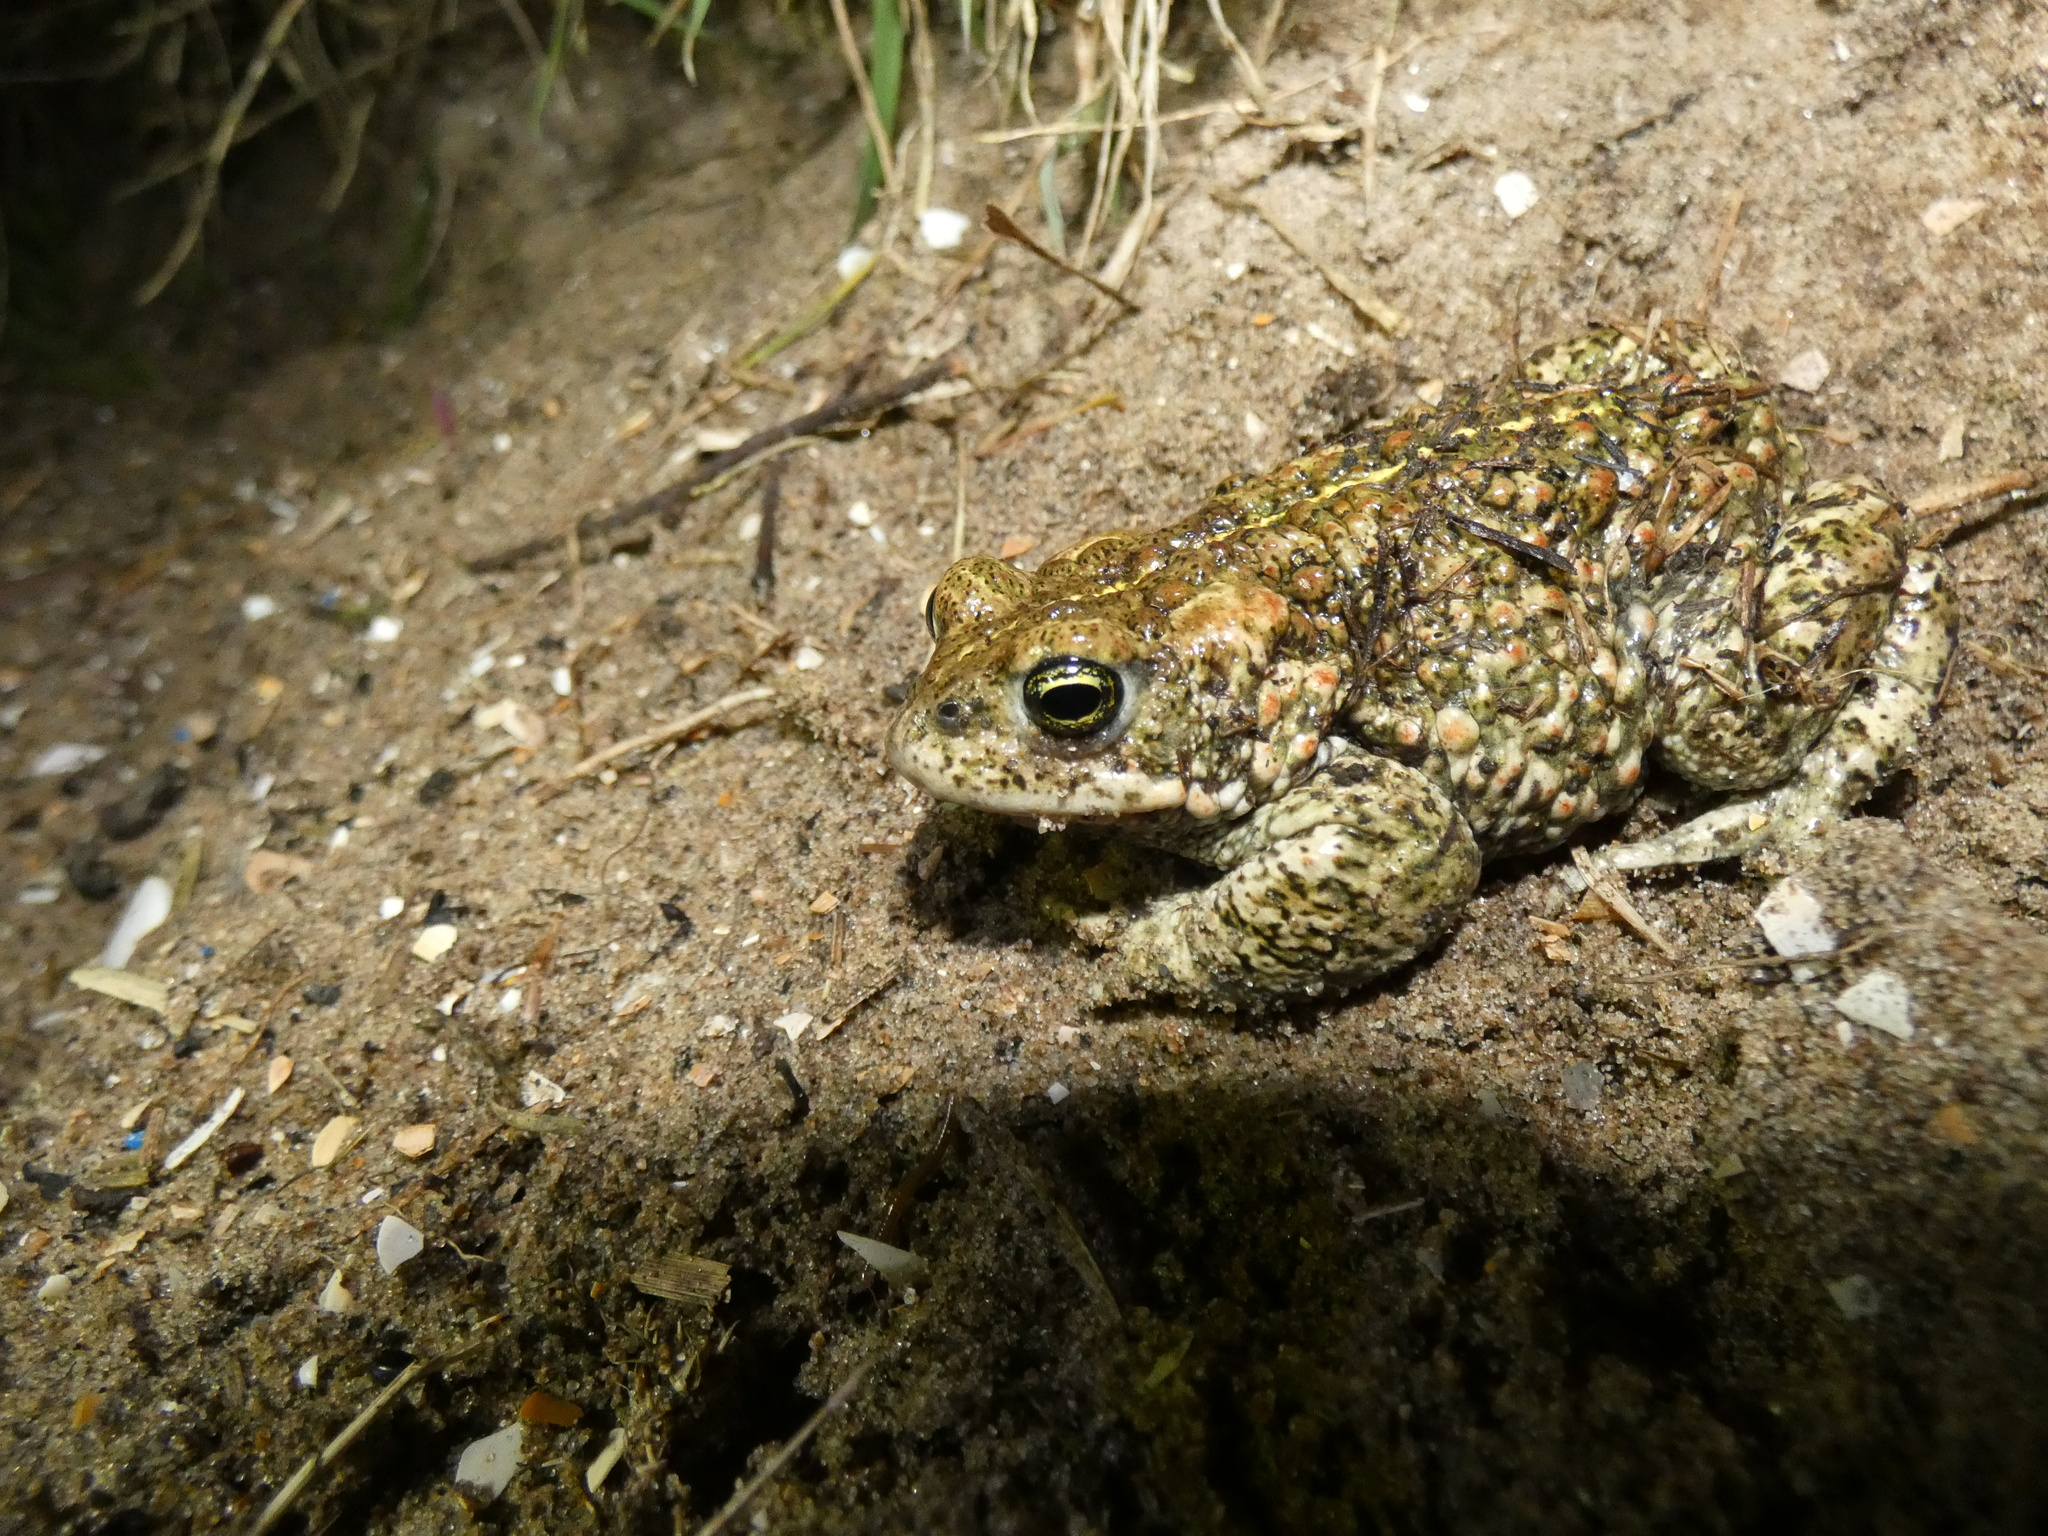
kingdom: Animalia
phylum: Chordata
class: Amphibia
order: Anura
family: Bufonidae
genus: Epidalea
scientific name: Epidalea calamita
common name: Natterjack toad
